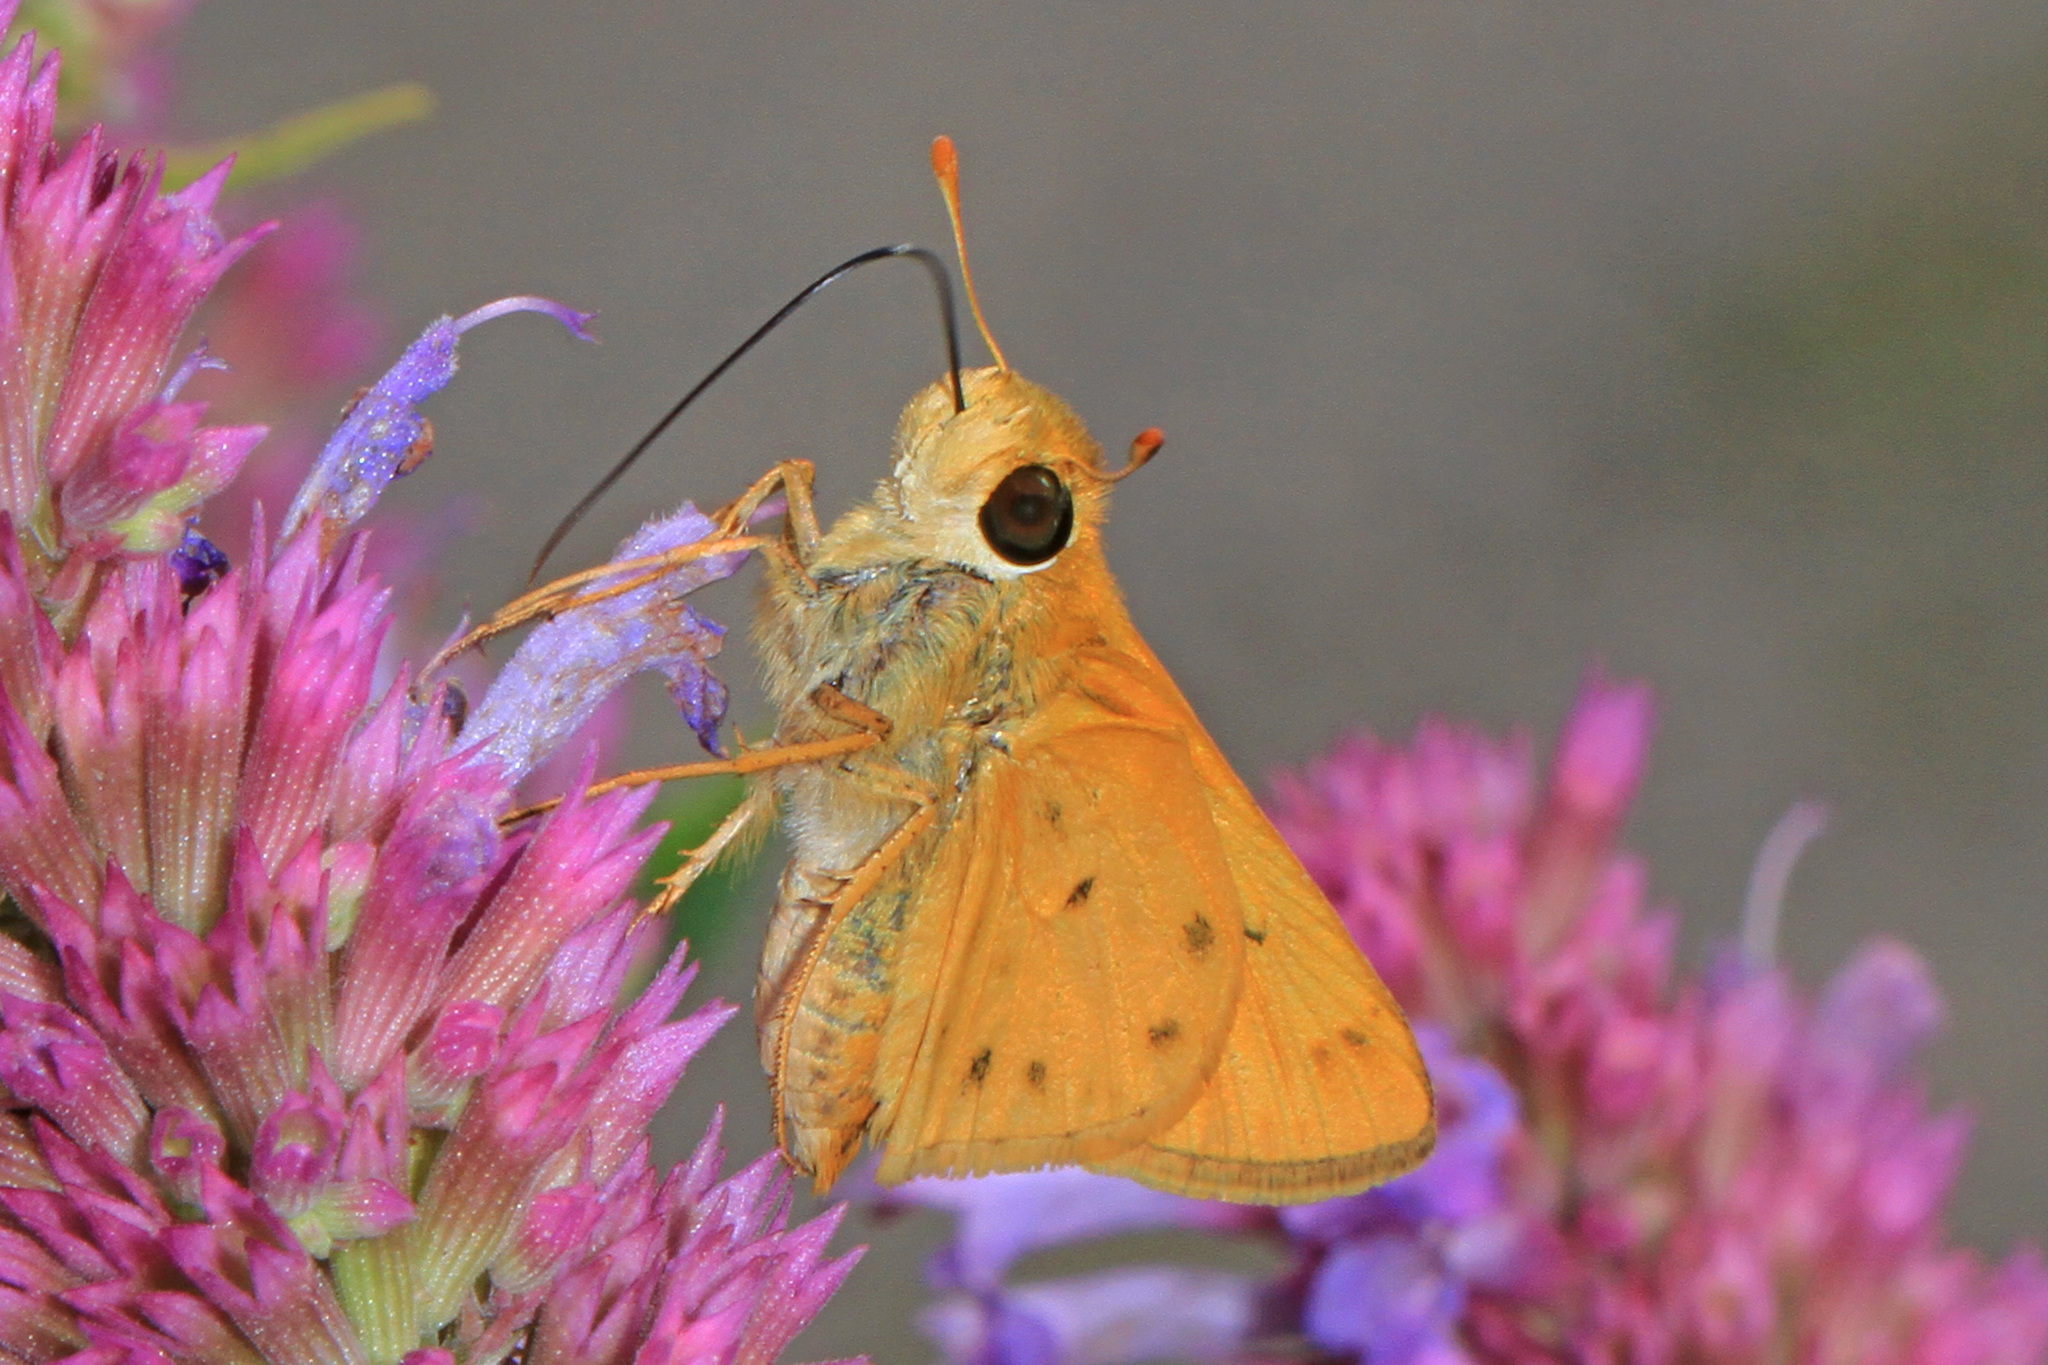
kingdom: Animalia
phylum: Arthropoda
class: Insecta
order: Lepidoptera
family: Hesperiidae
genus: Hylephila
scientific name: Hylephila phyleus
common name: Fiery skipper
